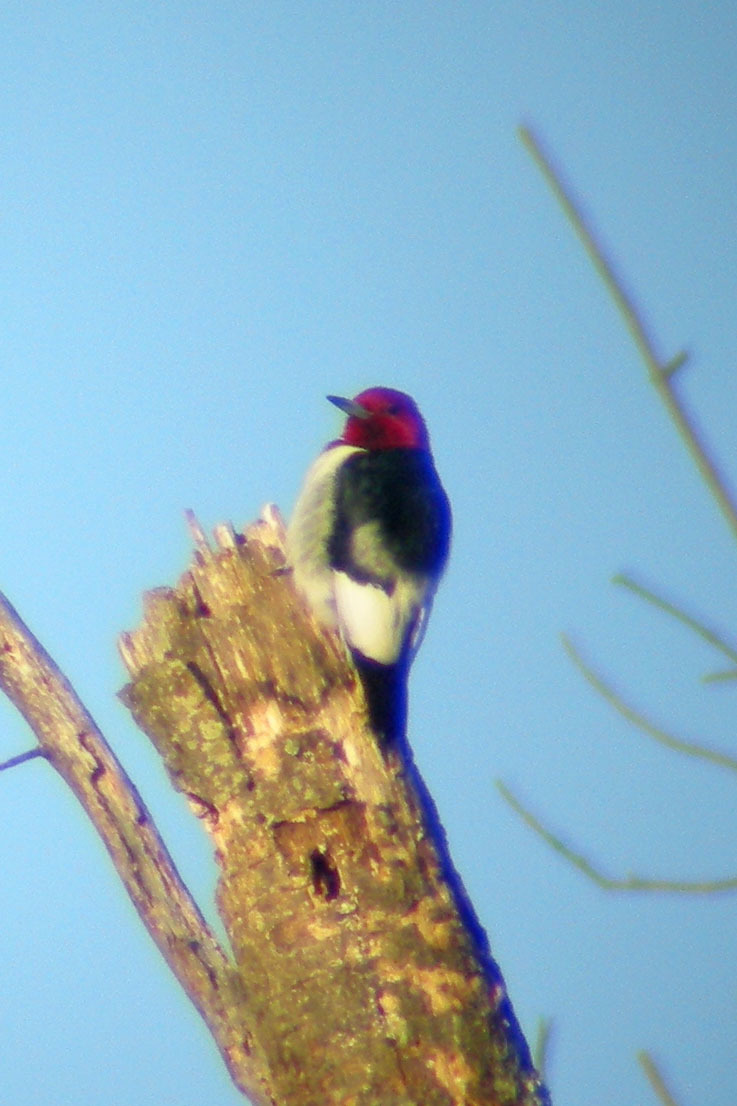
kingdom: Animalia
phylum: Chordata
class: Aves
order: Piciformes
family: Picidae
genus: Melanerpes
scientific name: Melanerpes erythrocephalus
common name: Red-headed woodpecker
